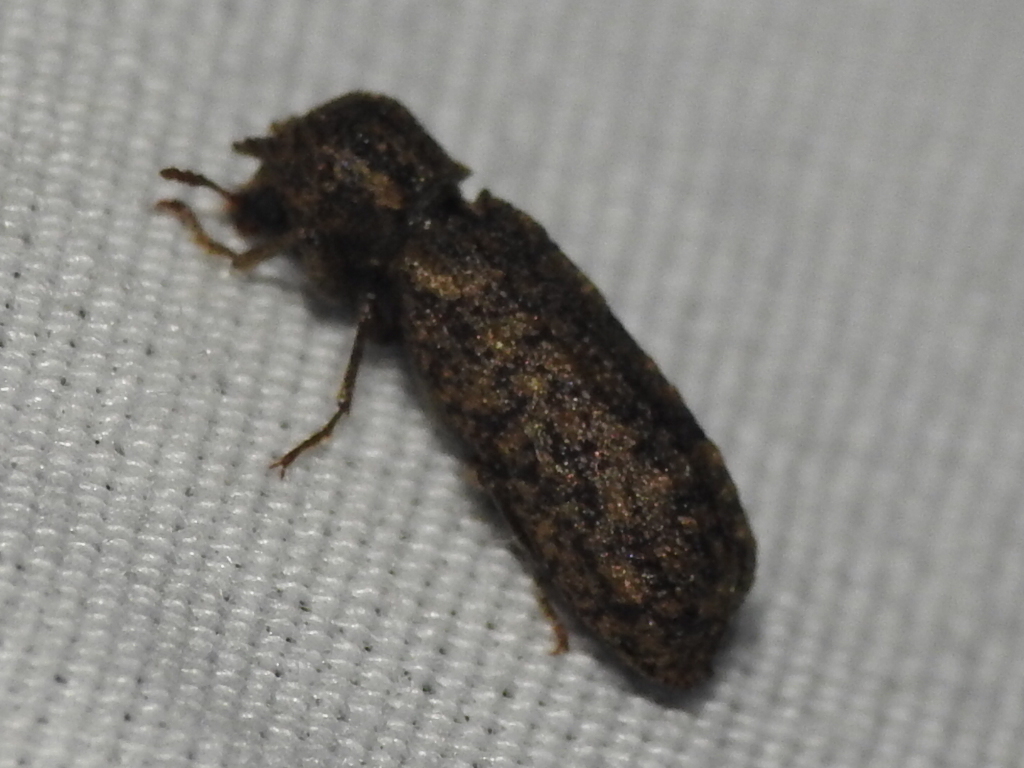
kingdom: Animalia
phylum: Arthropoda
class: Insecta
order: Coleoptera
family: Bostrichidae
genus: Lichenophanes
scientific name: Lichenophanes bicornis
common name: Two-horned powder-post beetle
